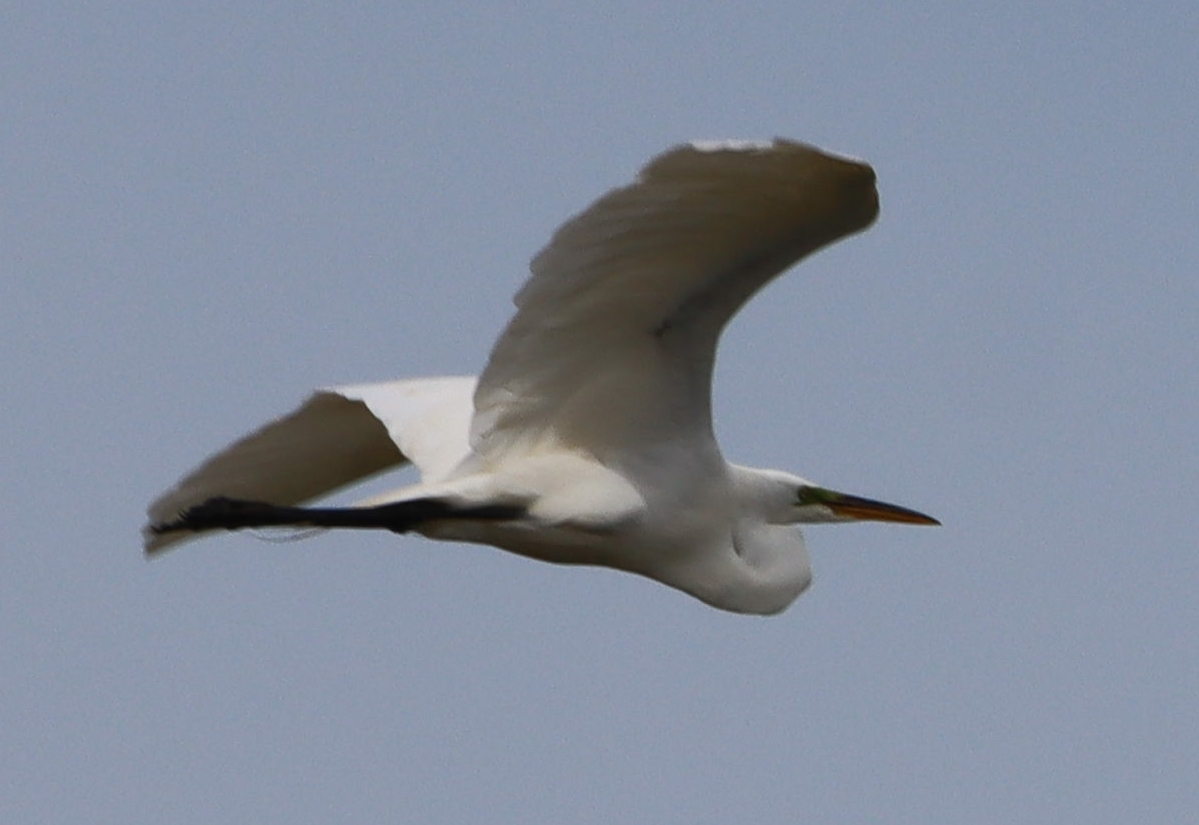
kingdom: Animalia
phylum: Chordata
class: Aves
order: Pelecaniformes
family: Ardeidae
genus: Ardea
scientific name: Ardea alba
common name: Great egret
